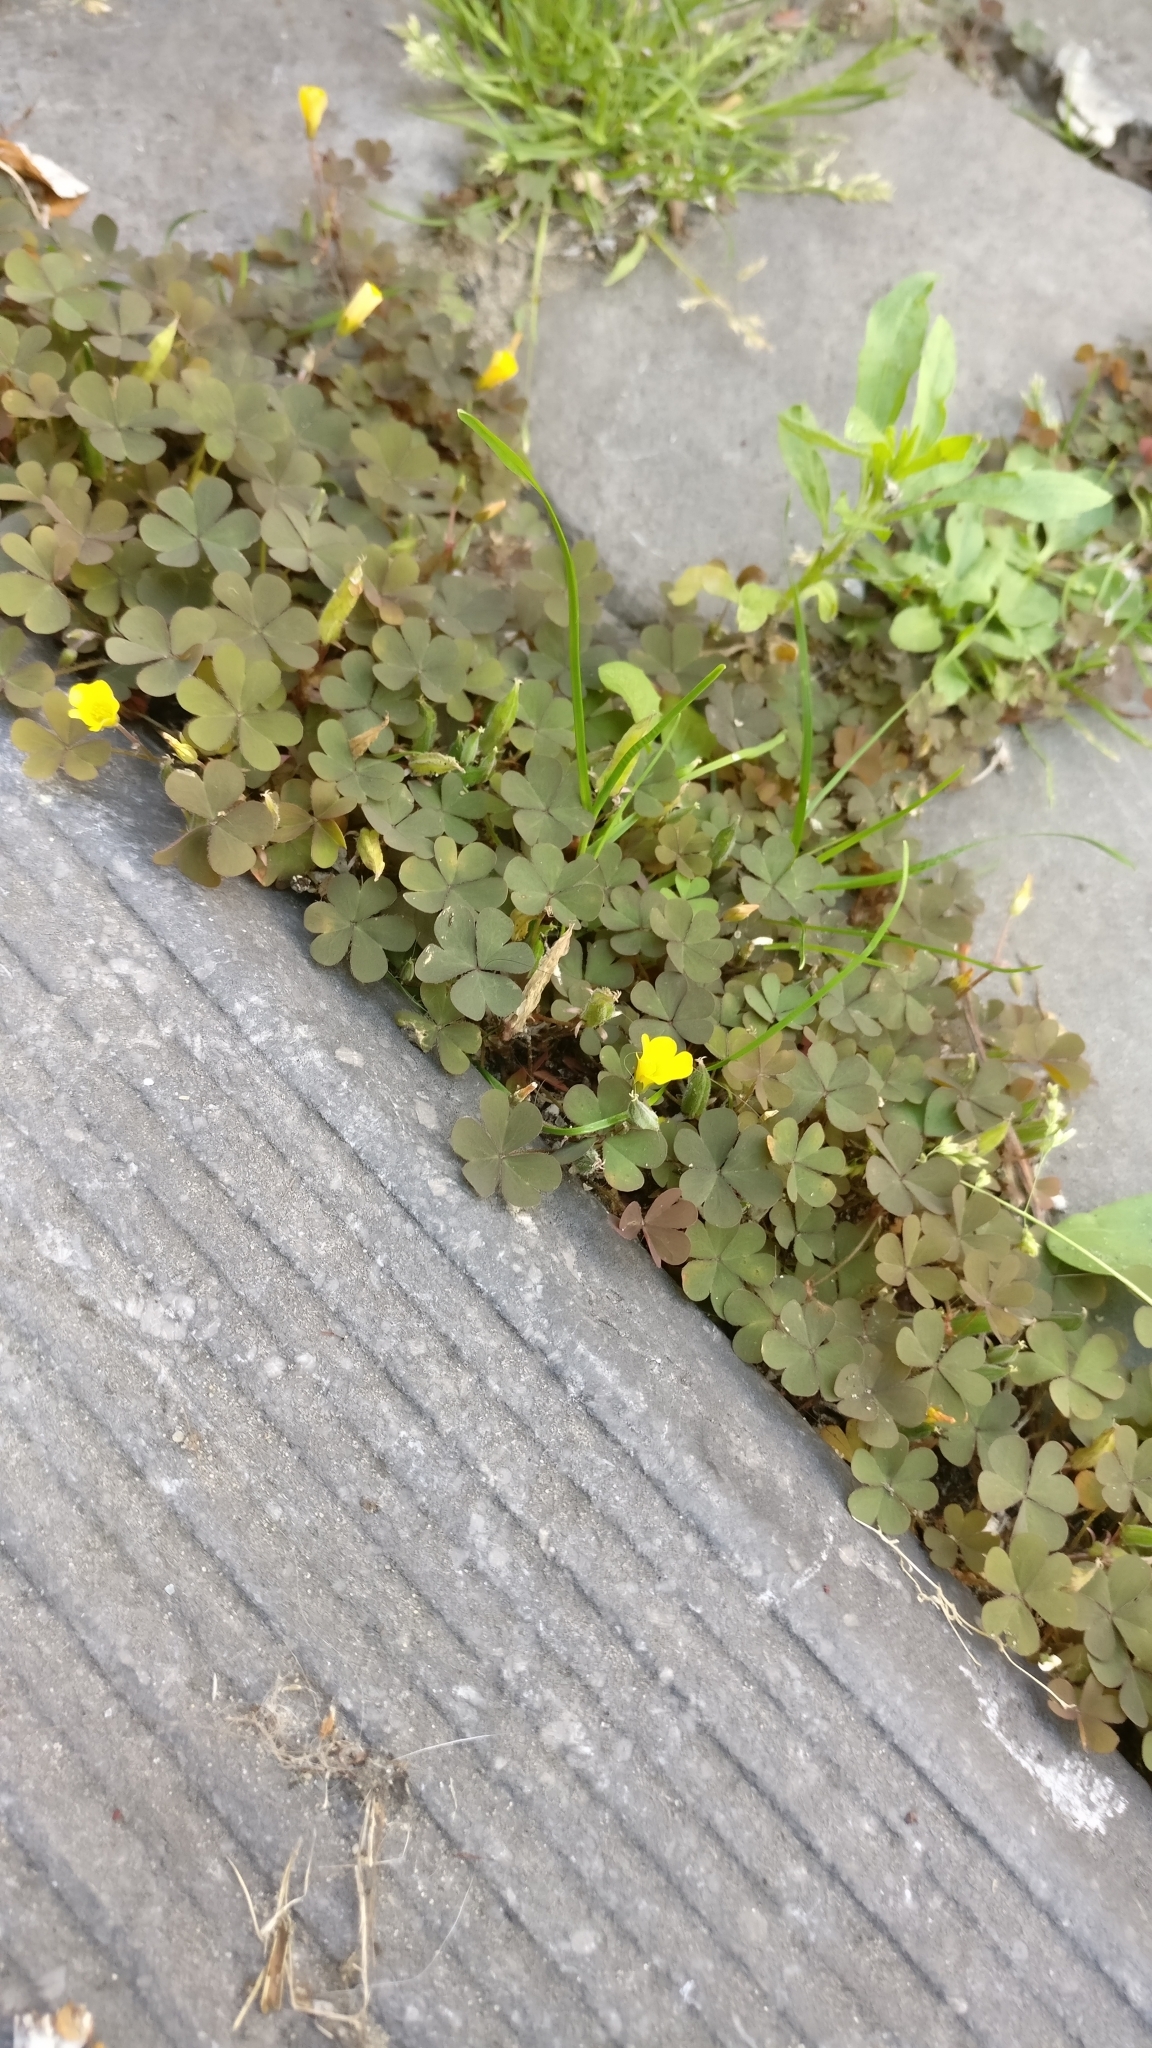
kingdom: Plantae
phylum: Tracheophyta
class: Magnoliopsida
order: Oxalidales
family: Oxalidaceae
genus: Oxalis
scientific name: Oxalis corniculata
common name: Procumbent yellow-sorrel
